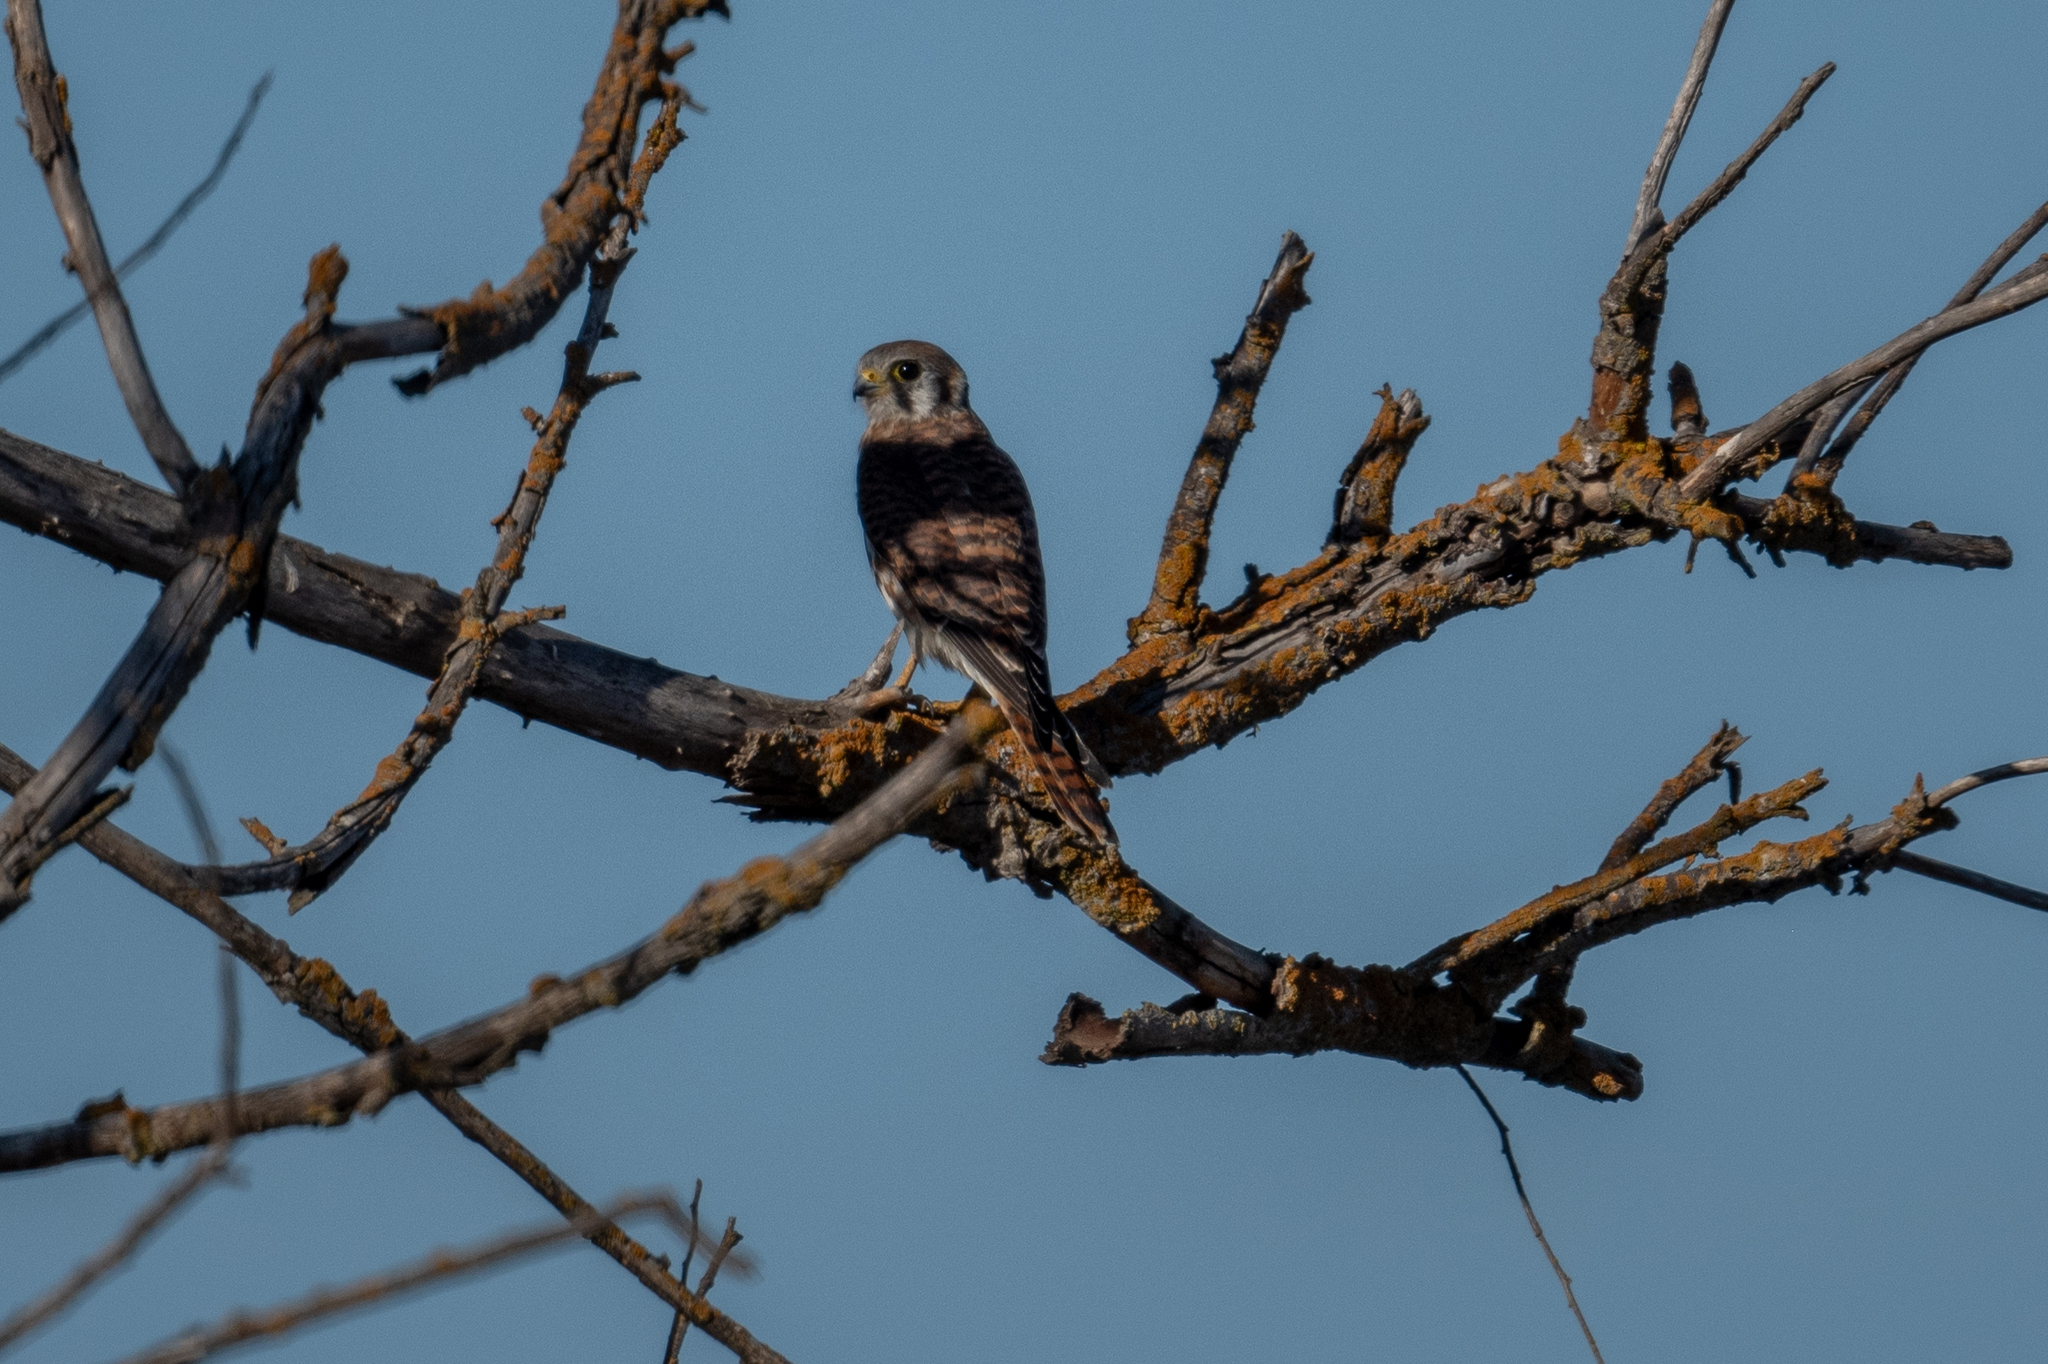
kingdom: Animalia
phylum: Chordata
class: Aves
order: Falconiformes
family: Falconidae
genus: Falco
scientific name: Falco sparverius
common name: American kestrel
